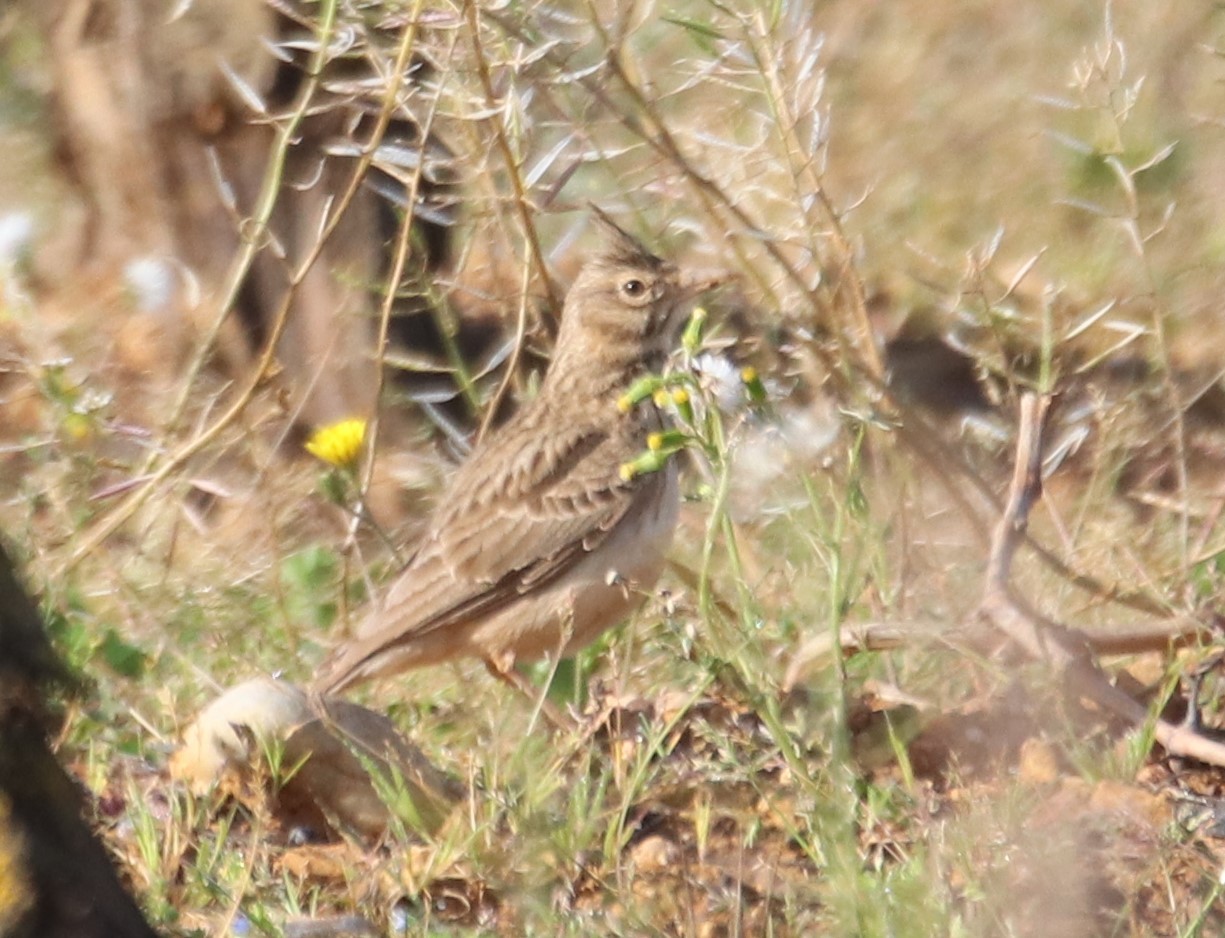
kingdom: Animalia
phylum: Chordata
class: Aves
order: Passeriformes
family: Alaudidae
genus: Galerida
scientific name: Galerida cristata
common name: Crested lark
